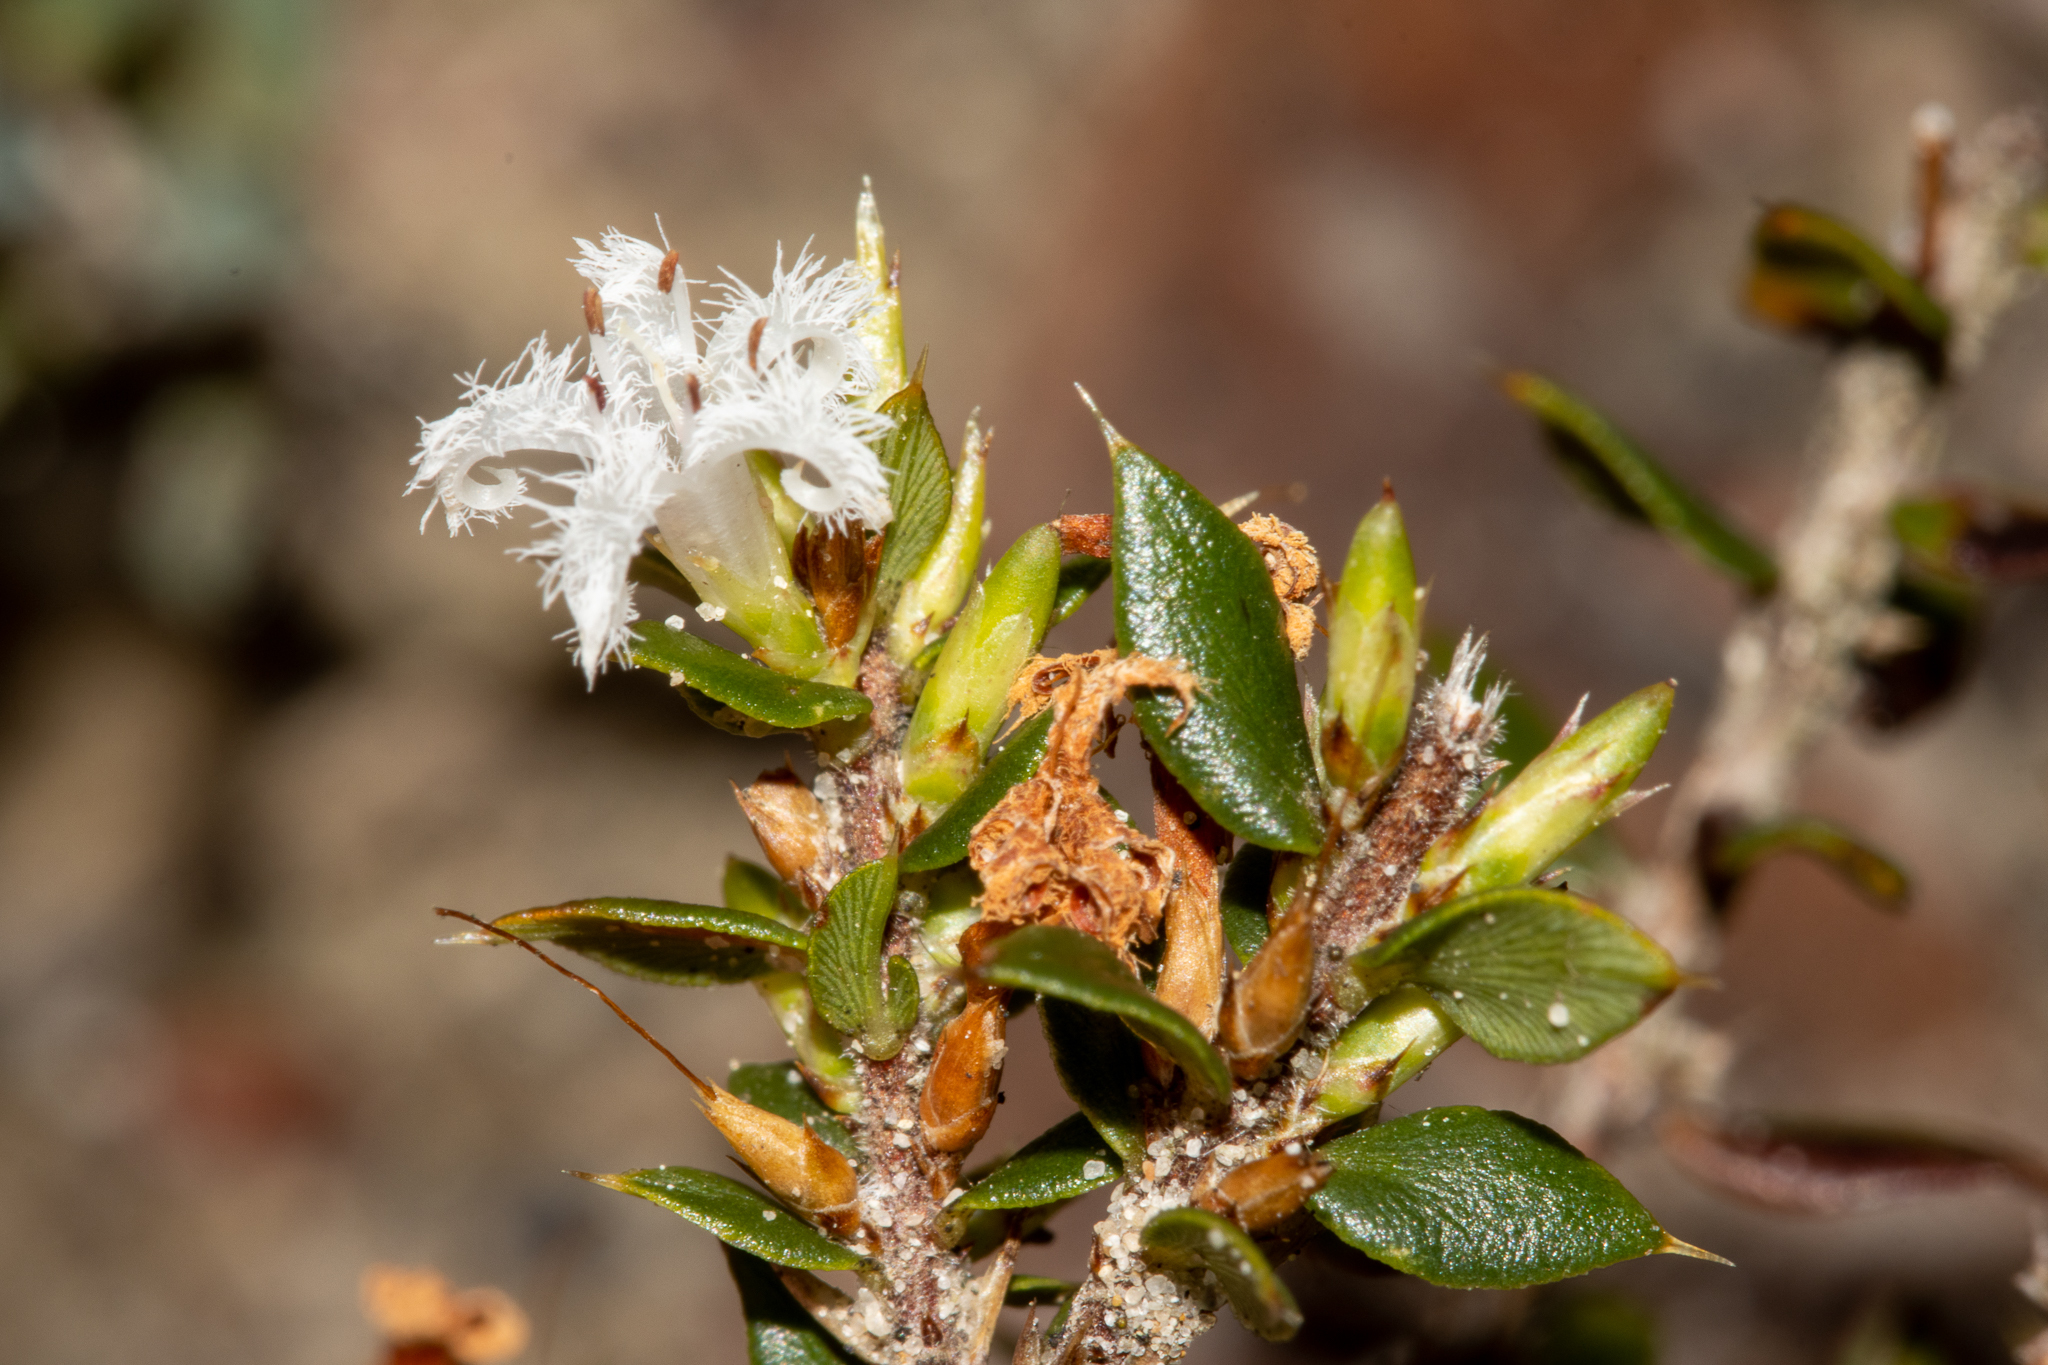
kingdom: Plantae
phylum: Tracheophyta
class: Magnoliopsida
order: Ericales
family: Ericaceae
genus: Styphelia
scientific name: Styphelia exarrhena
